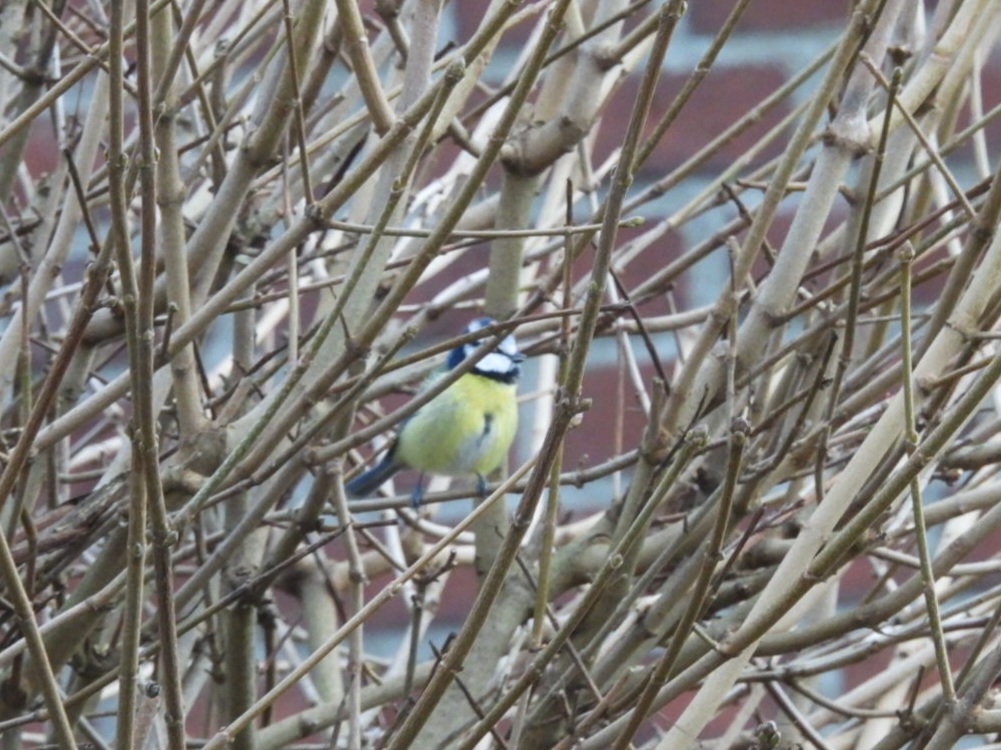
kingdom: Animalia
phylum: Chordata
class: Aves
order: Passeriformes
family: Paridae
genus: Cyanistes
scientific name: Cyanistes caeruleus
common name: Eurasian blue tit
